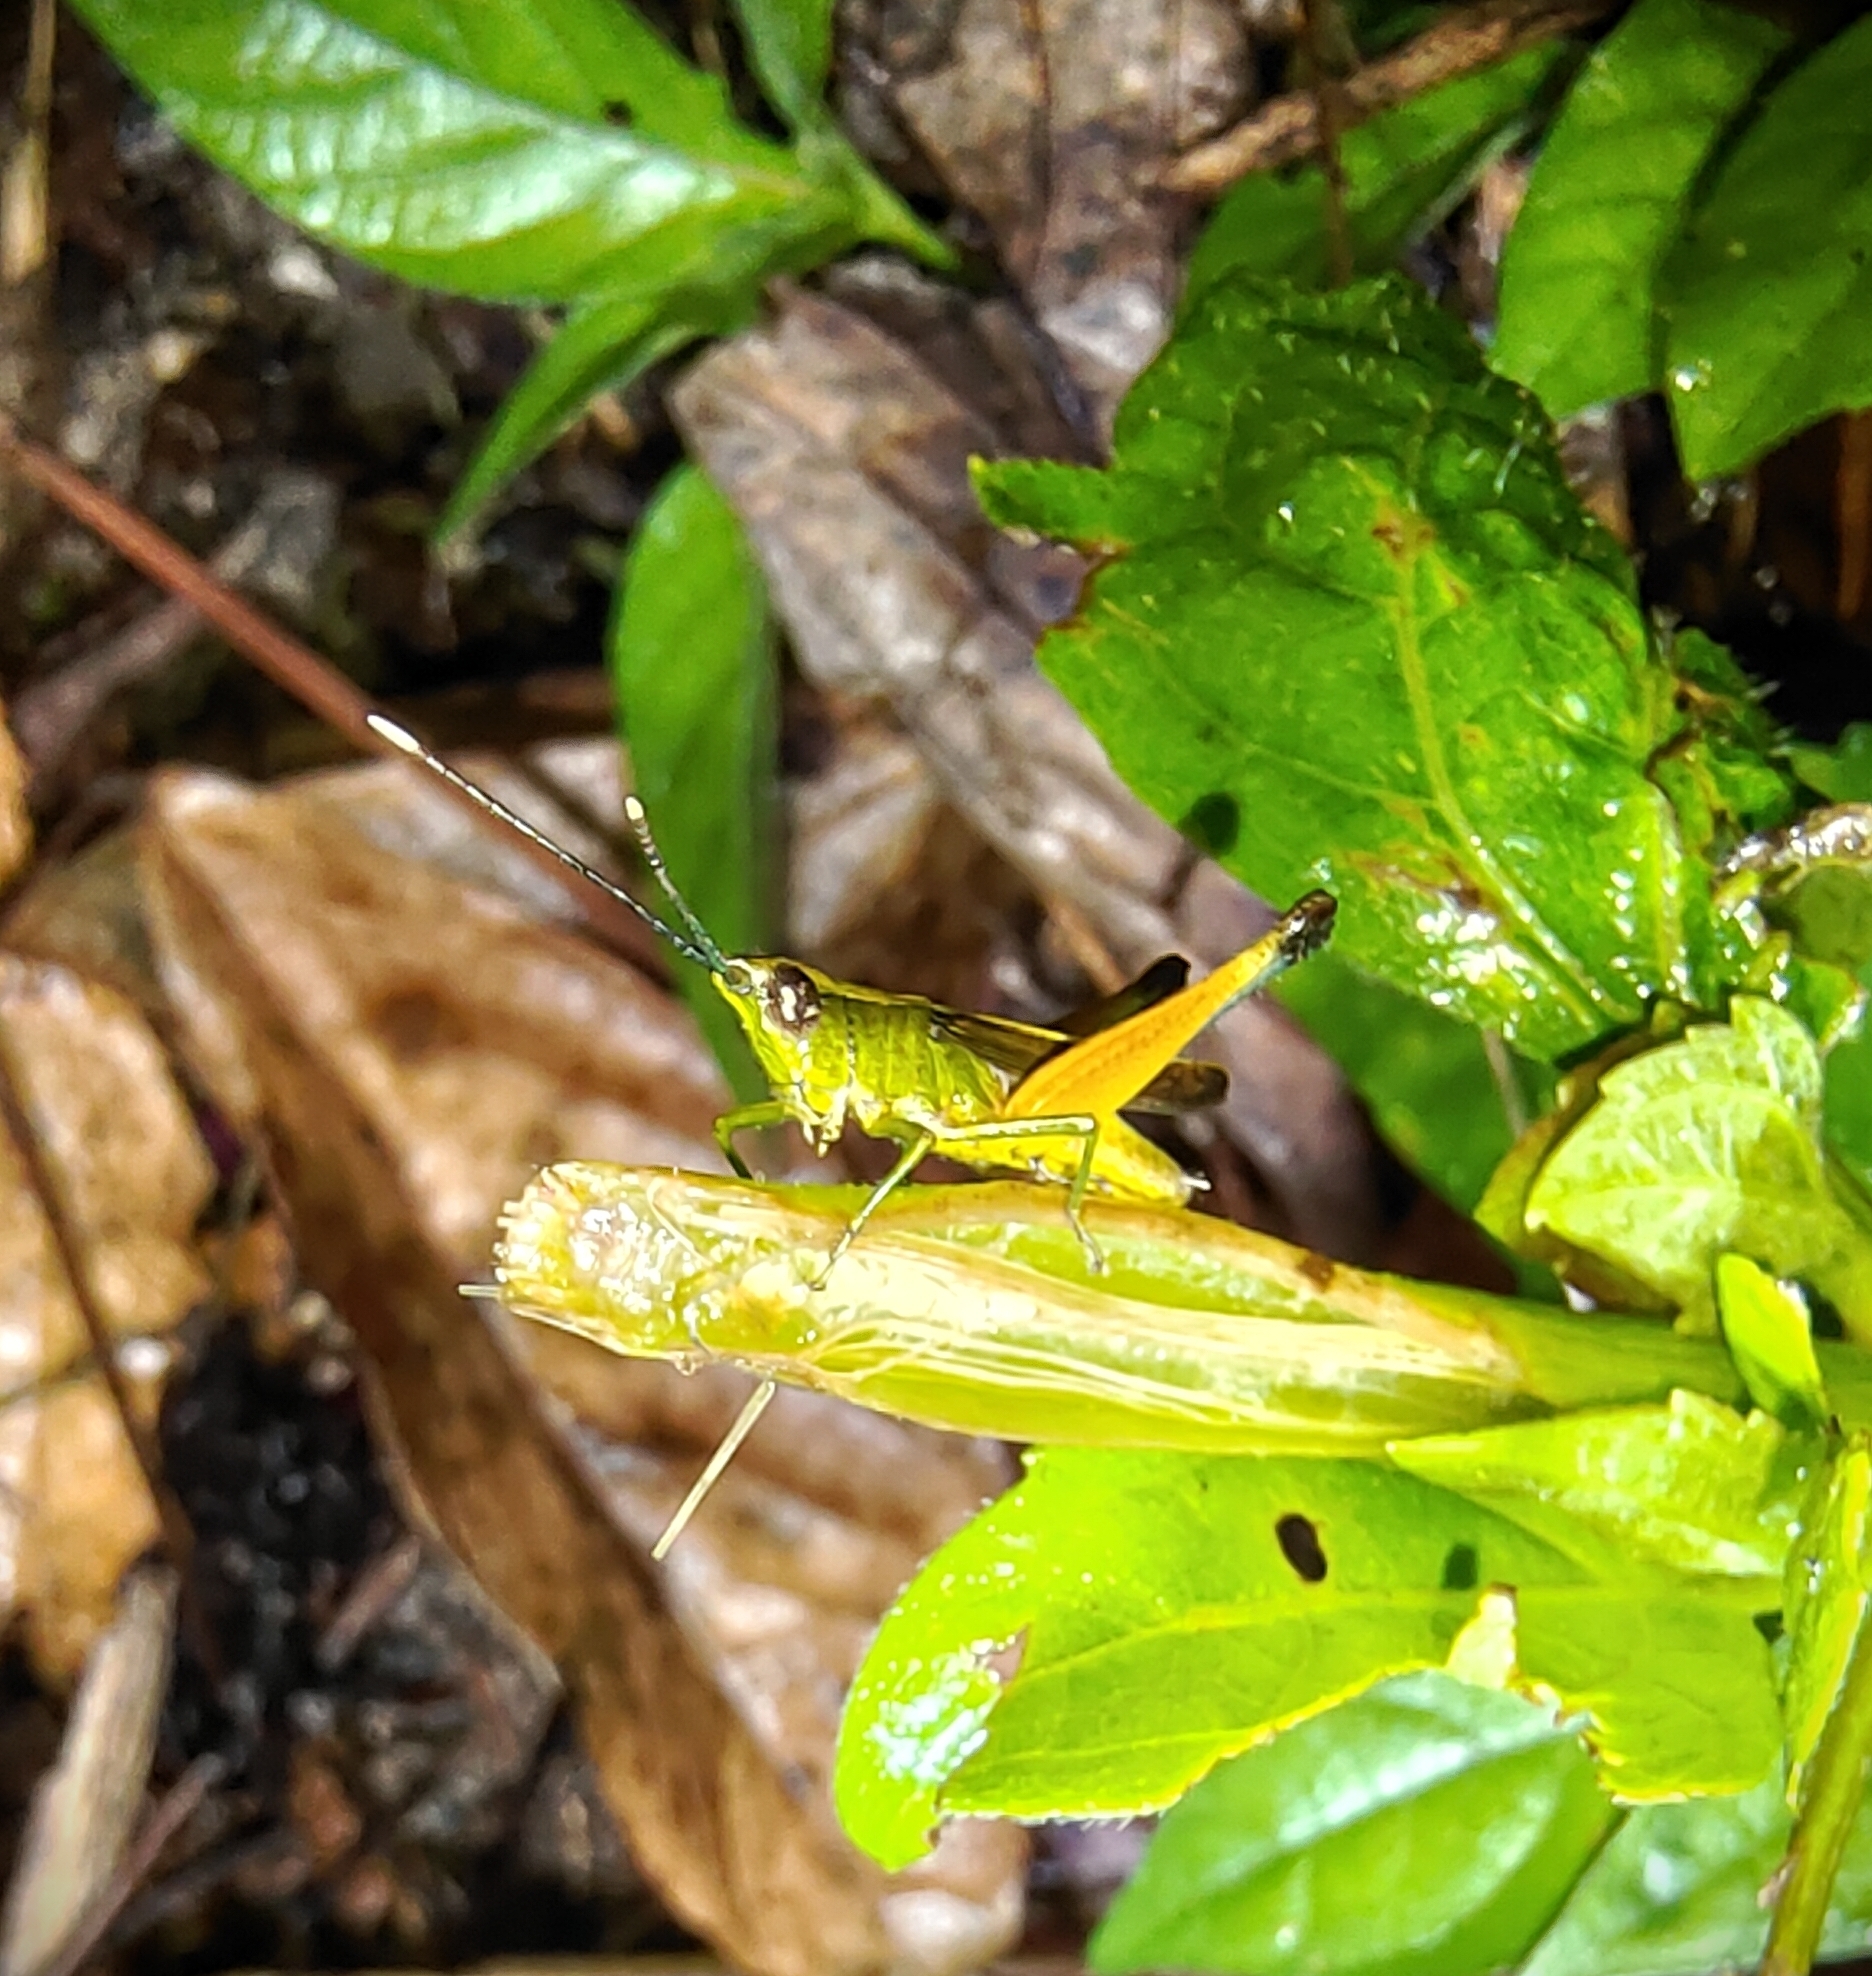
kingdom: Animalia
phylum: Arthropoda
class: Insecta
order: Orthoptera
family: Acrididae
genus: Phlaeoba
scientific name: Phlaeoba antennata
